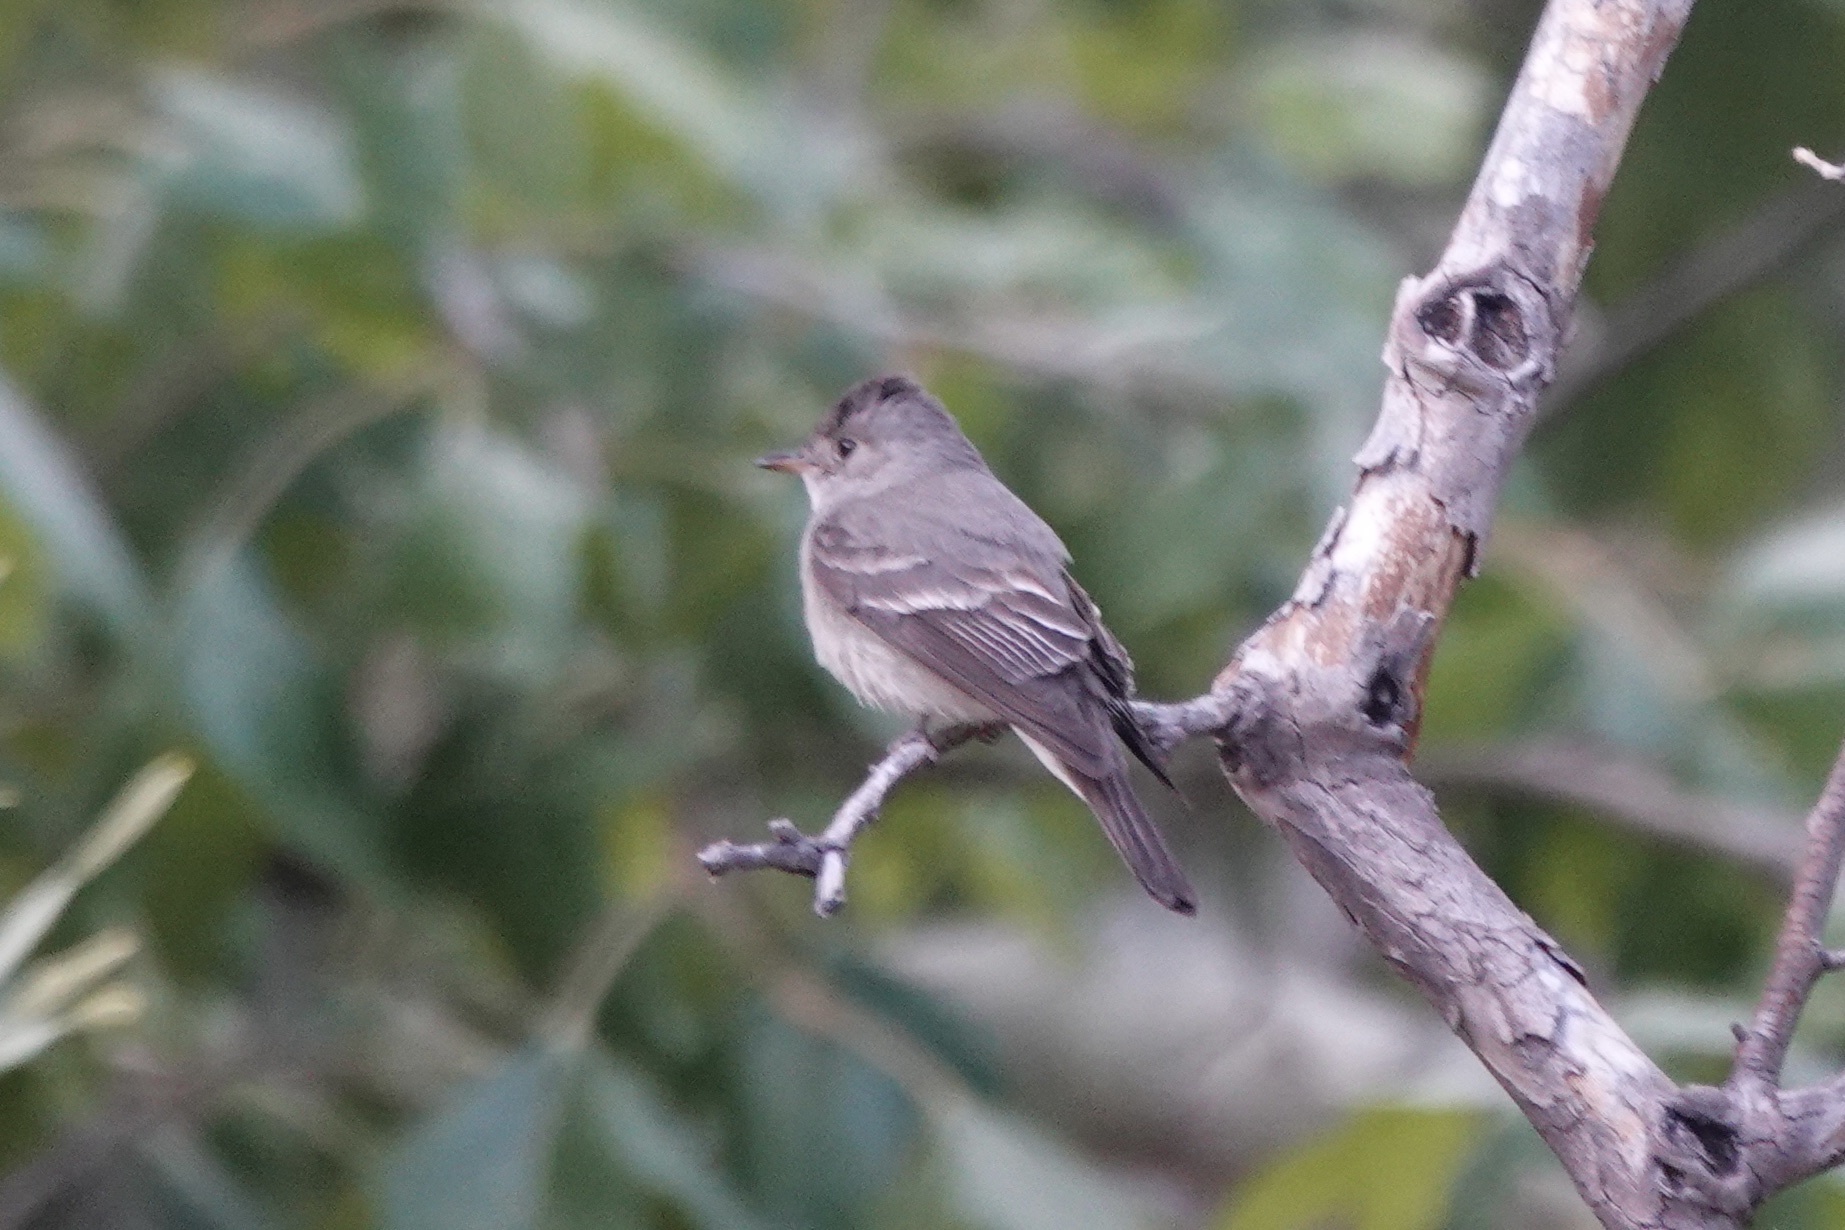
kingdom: Animalia
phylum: Chordata
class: Aves
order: Passeriformes
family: Tyrannidae
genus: Contopus
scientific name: Contopus sordidulus
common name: Western wood-pewee
